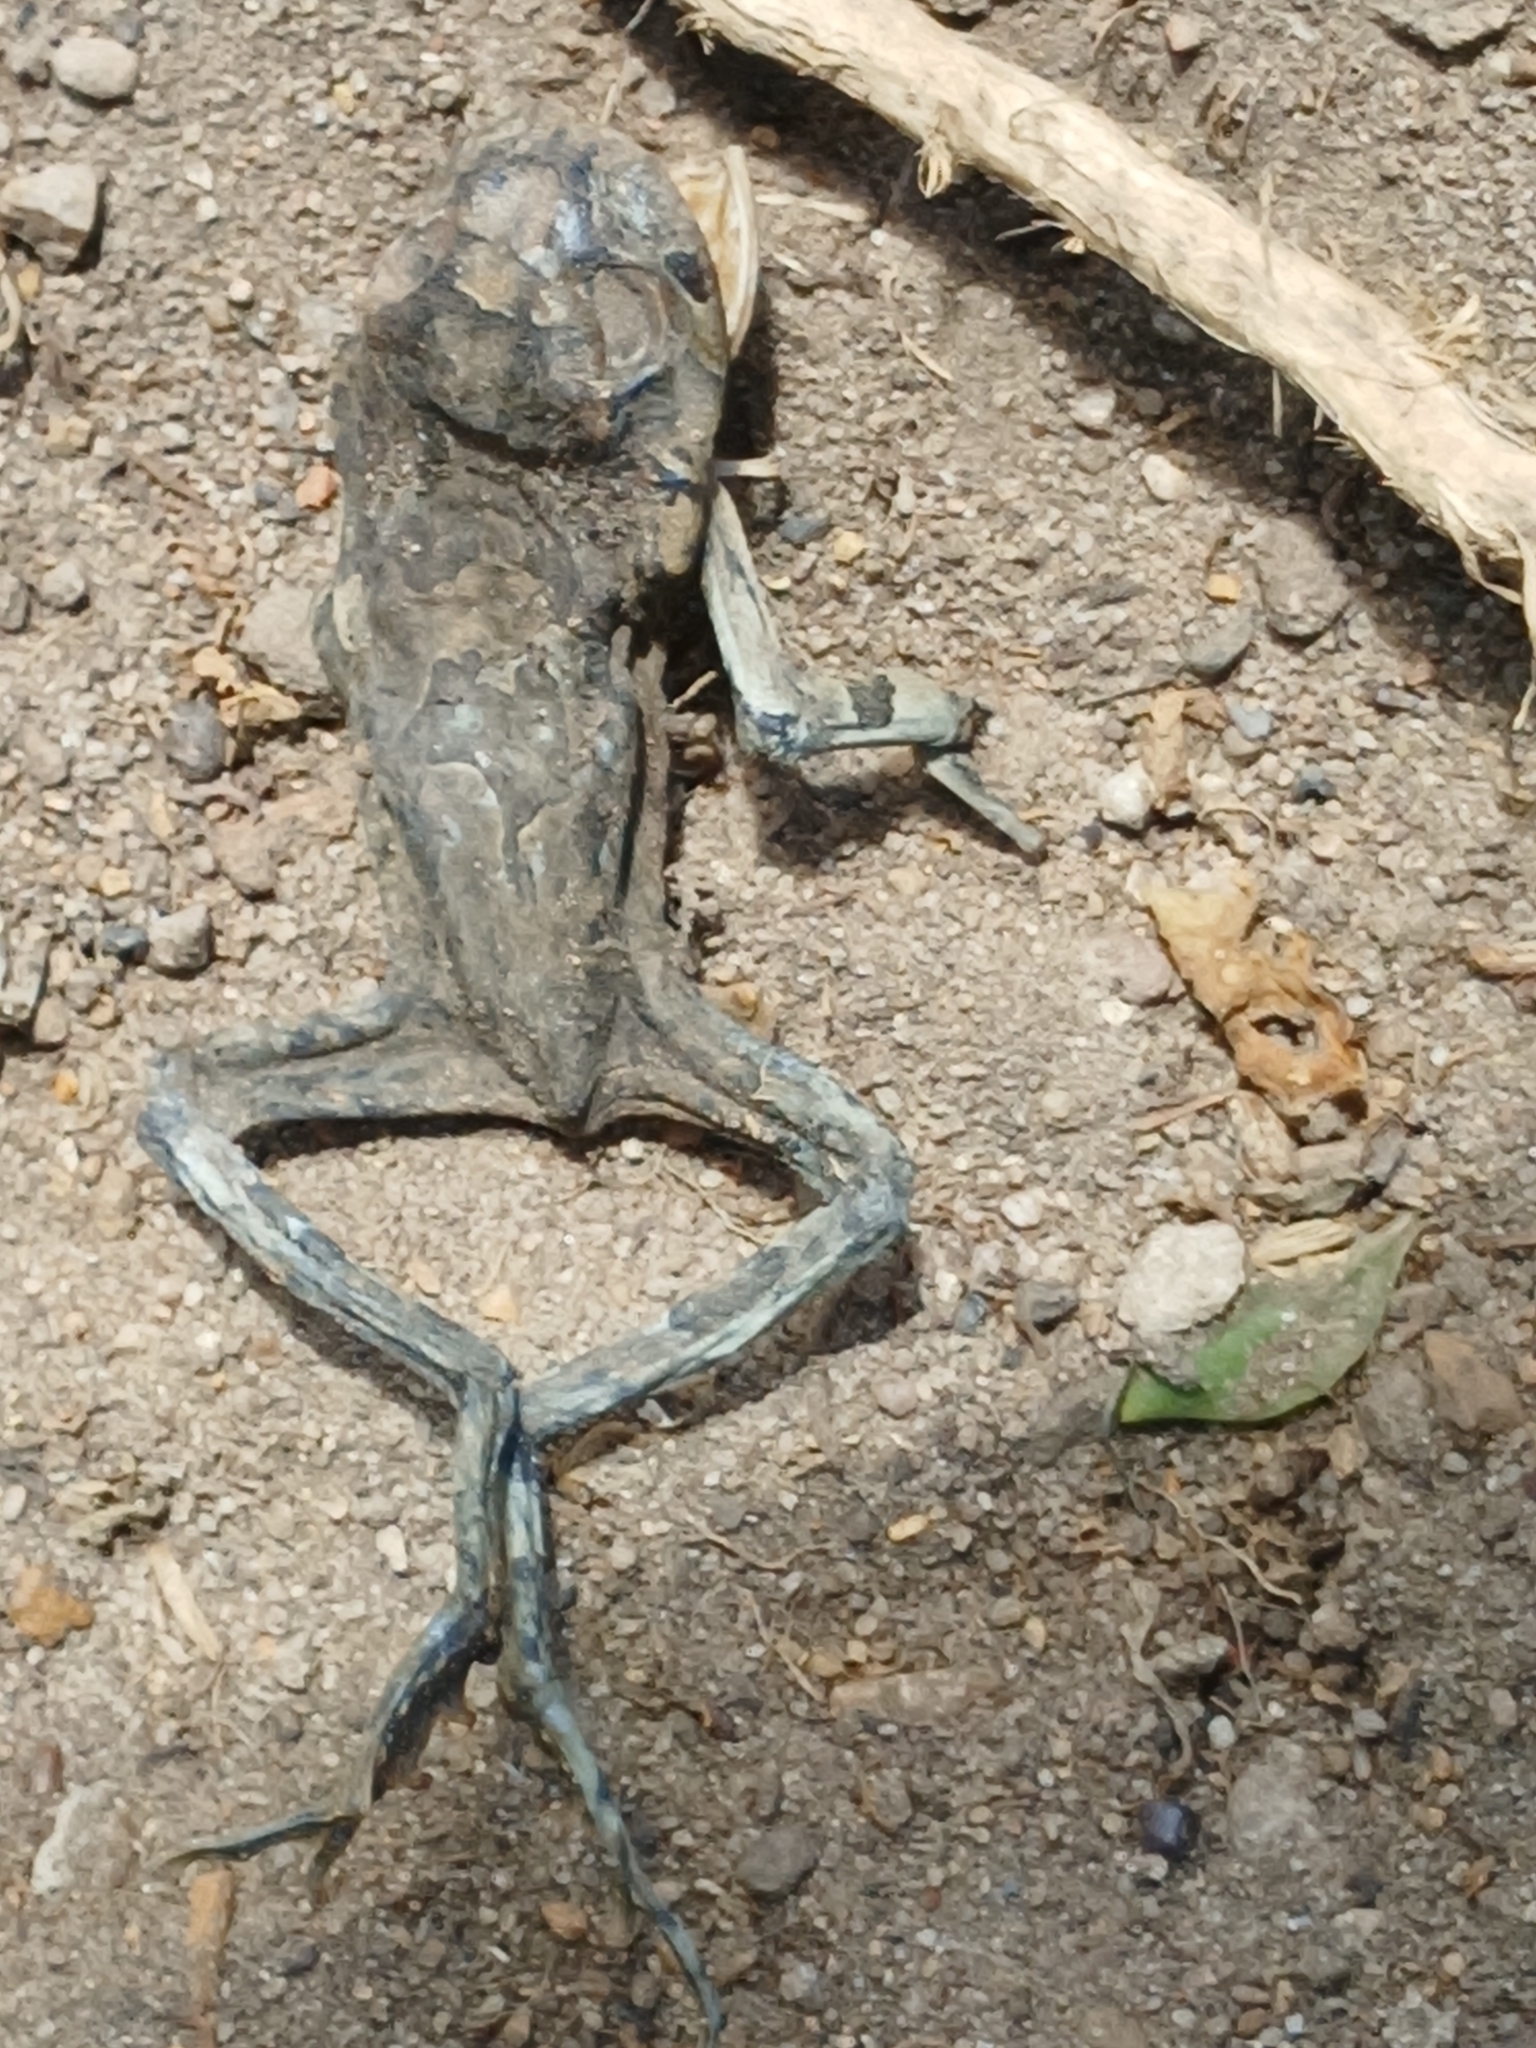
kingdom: Animalia
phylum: Chordata
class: Amphibia
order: Anura
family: Bufonidae
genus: Sclerophrys
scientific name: Sclerophrys capensis
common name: Ranger’s toad
